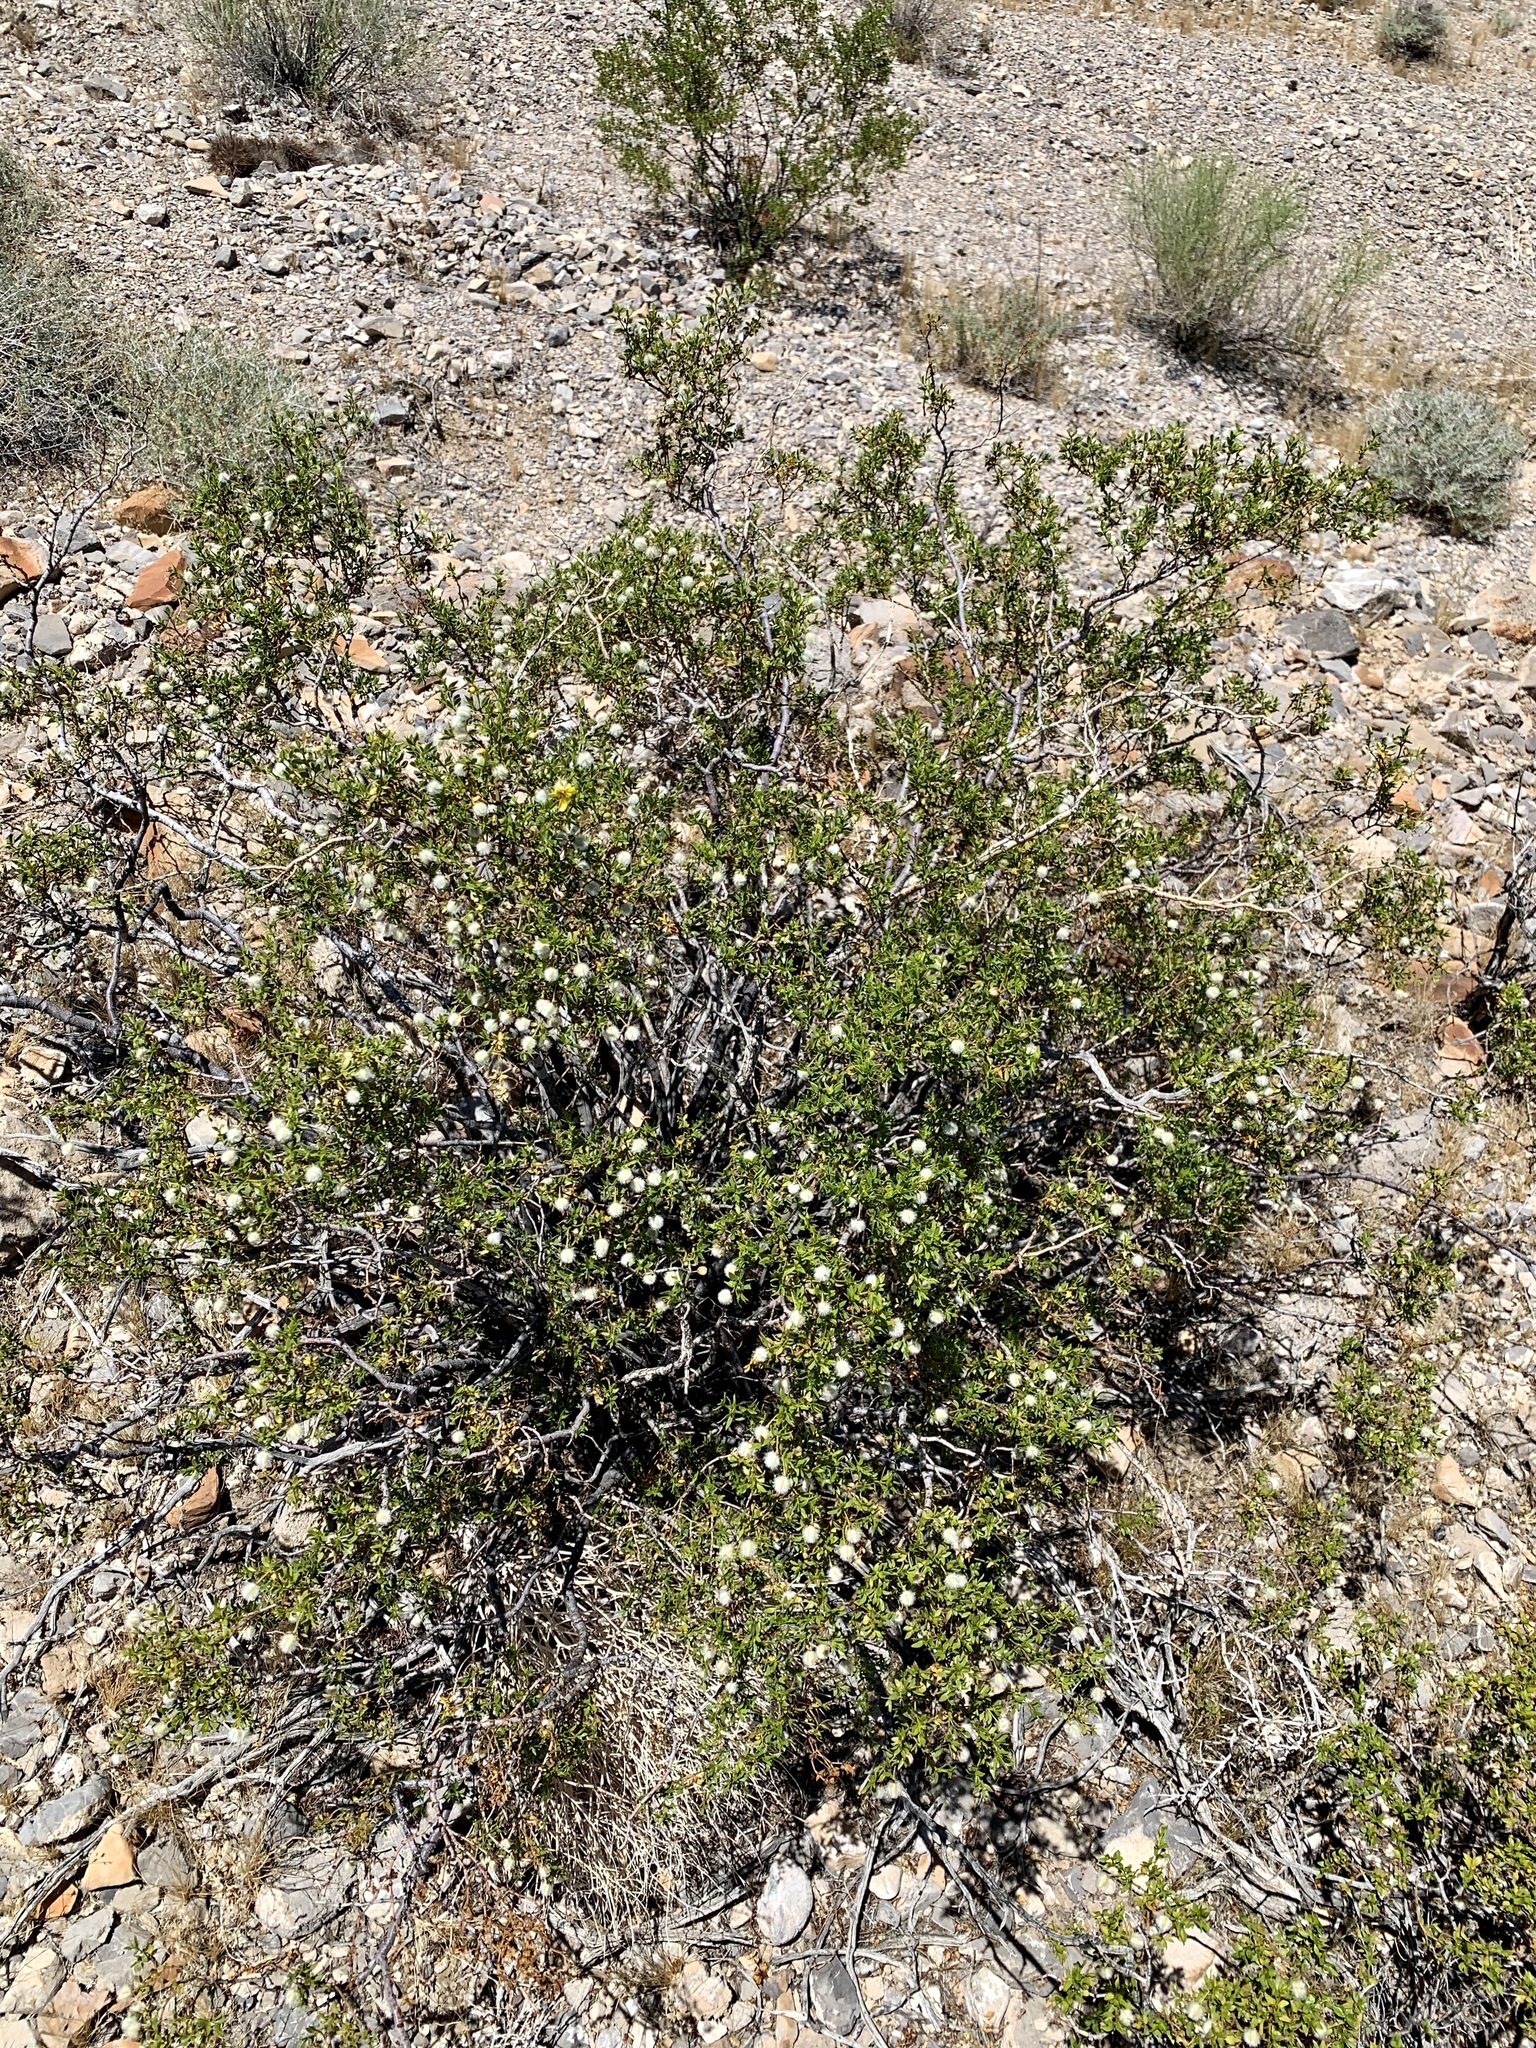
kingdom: Plantae
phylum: Tracheophyta
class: Magnoliopsida
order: Zygophyllales
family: Zygophyllaceae
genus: Larrea
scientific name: Larrea tridentata
